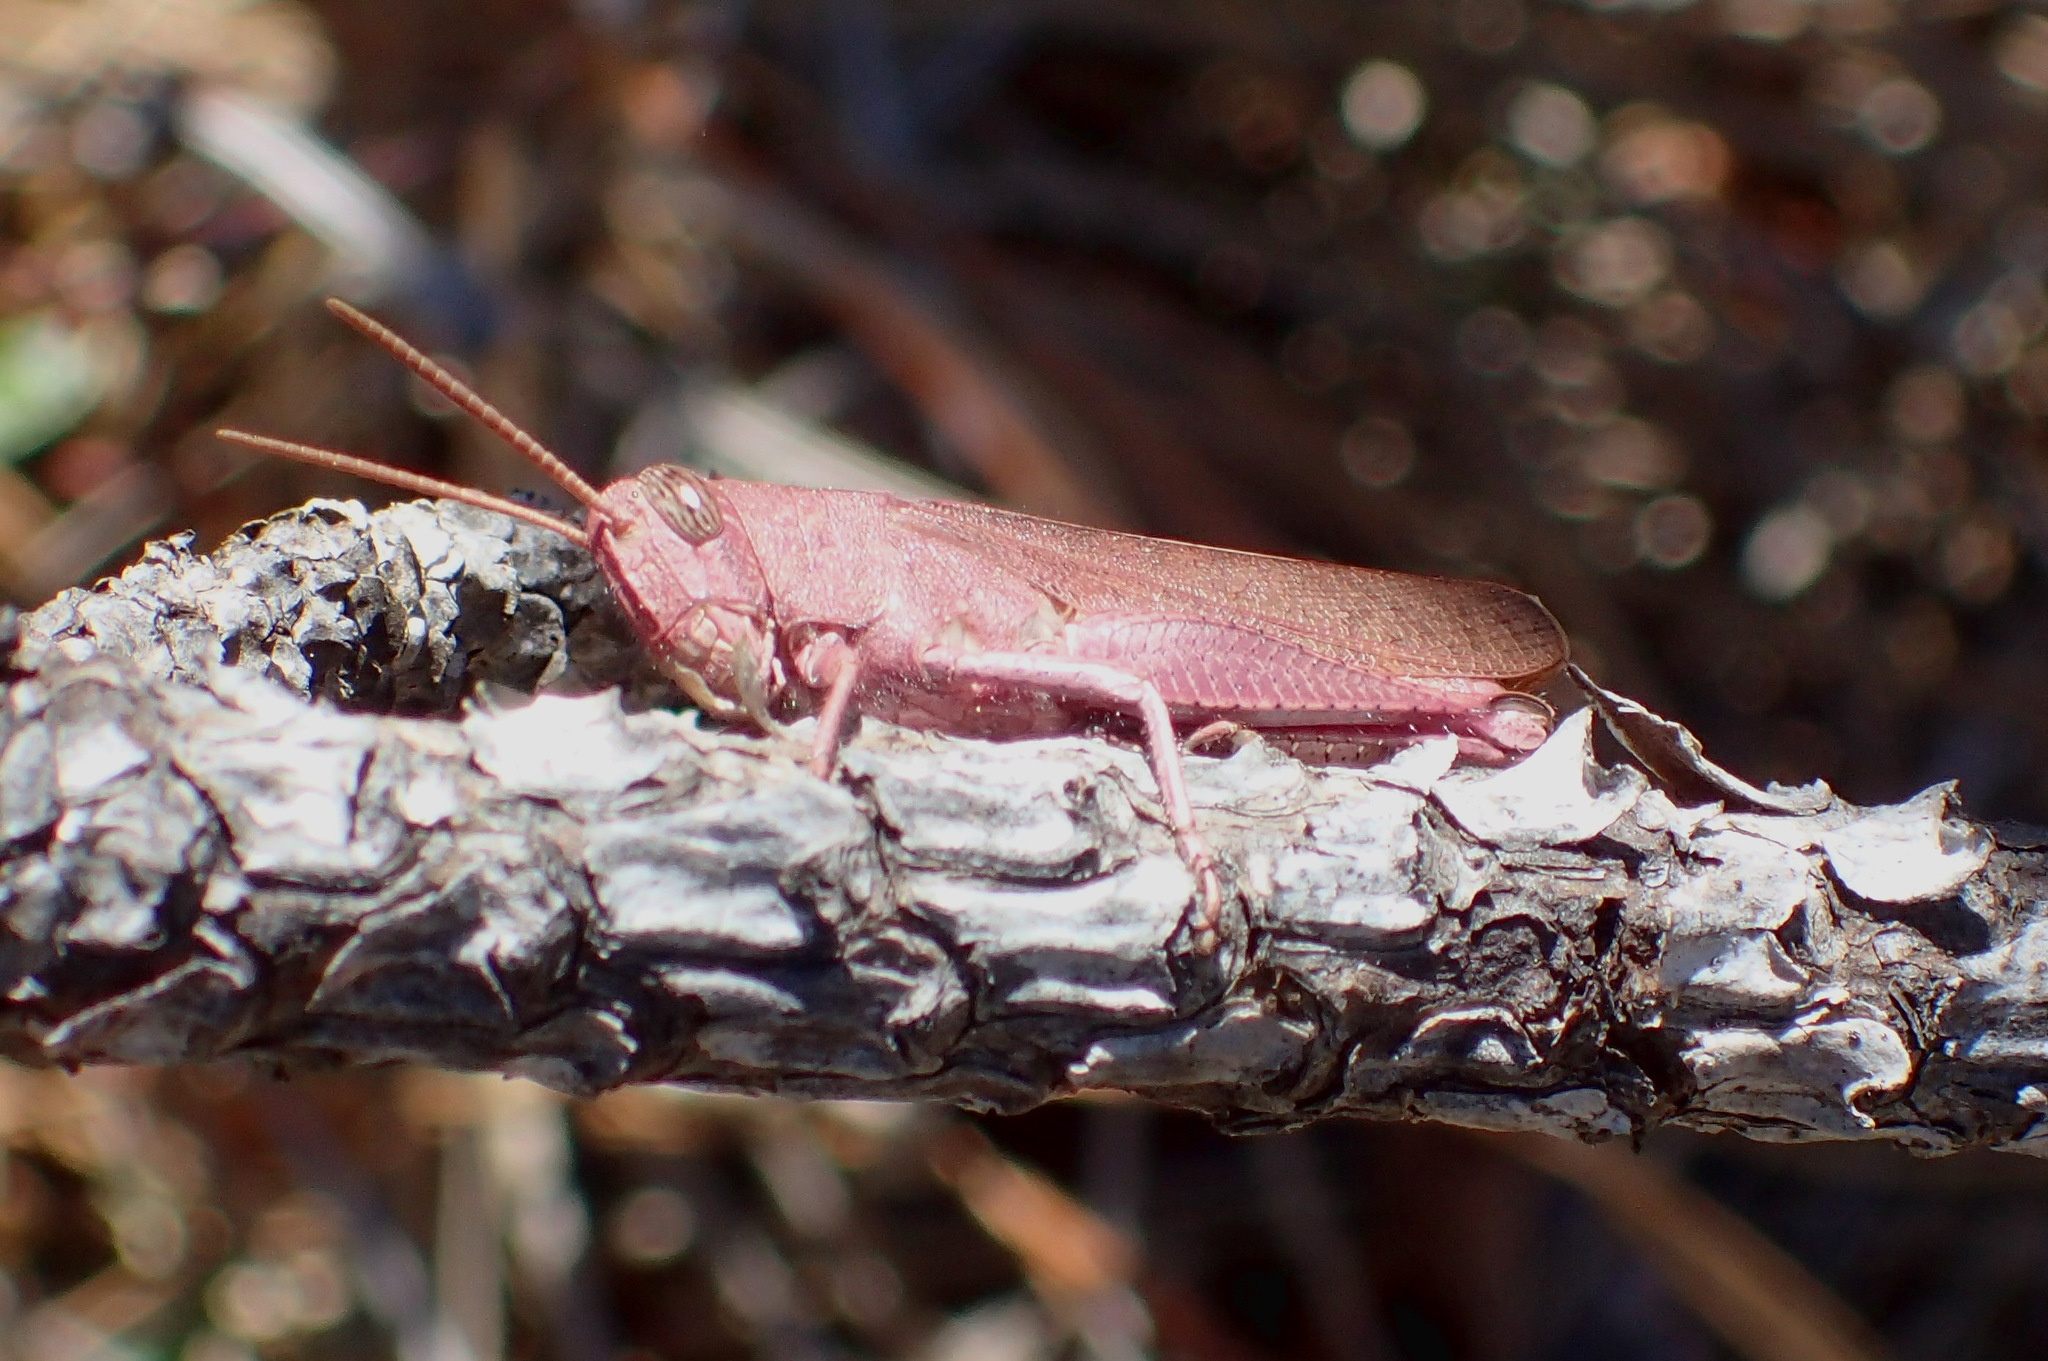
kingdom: Animalia
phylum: Arthropoda
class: Insecta
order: Orthoptera
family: Acrididae
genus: Schistocerca
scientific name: Schistocerca damnifica
